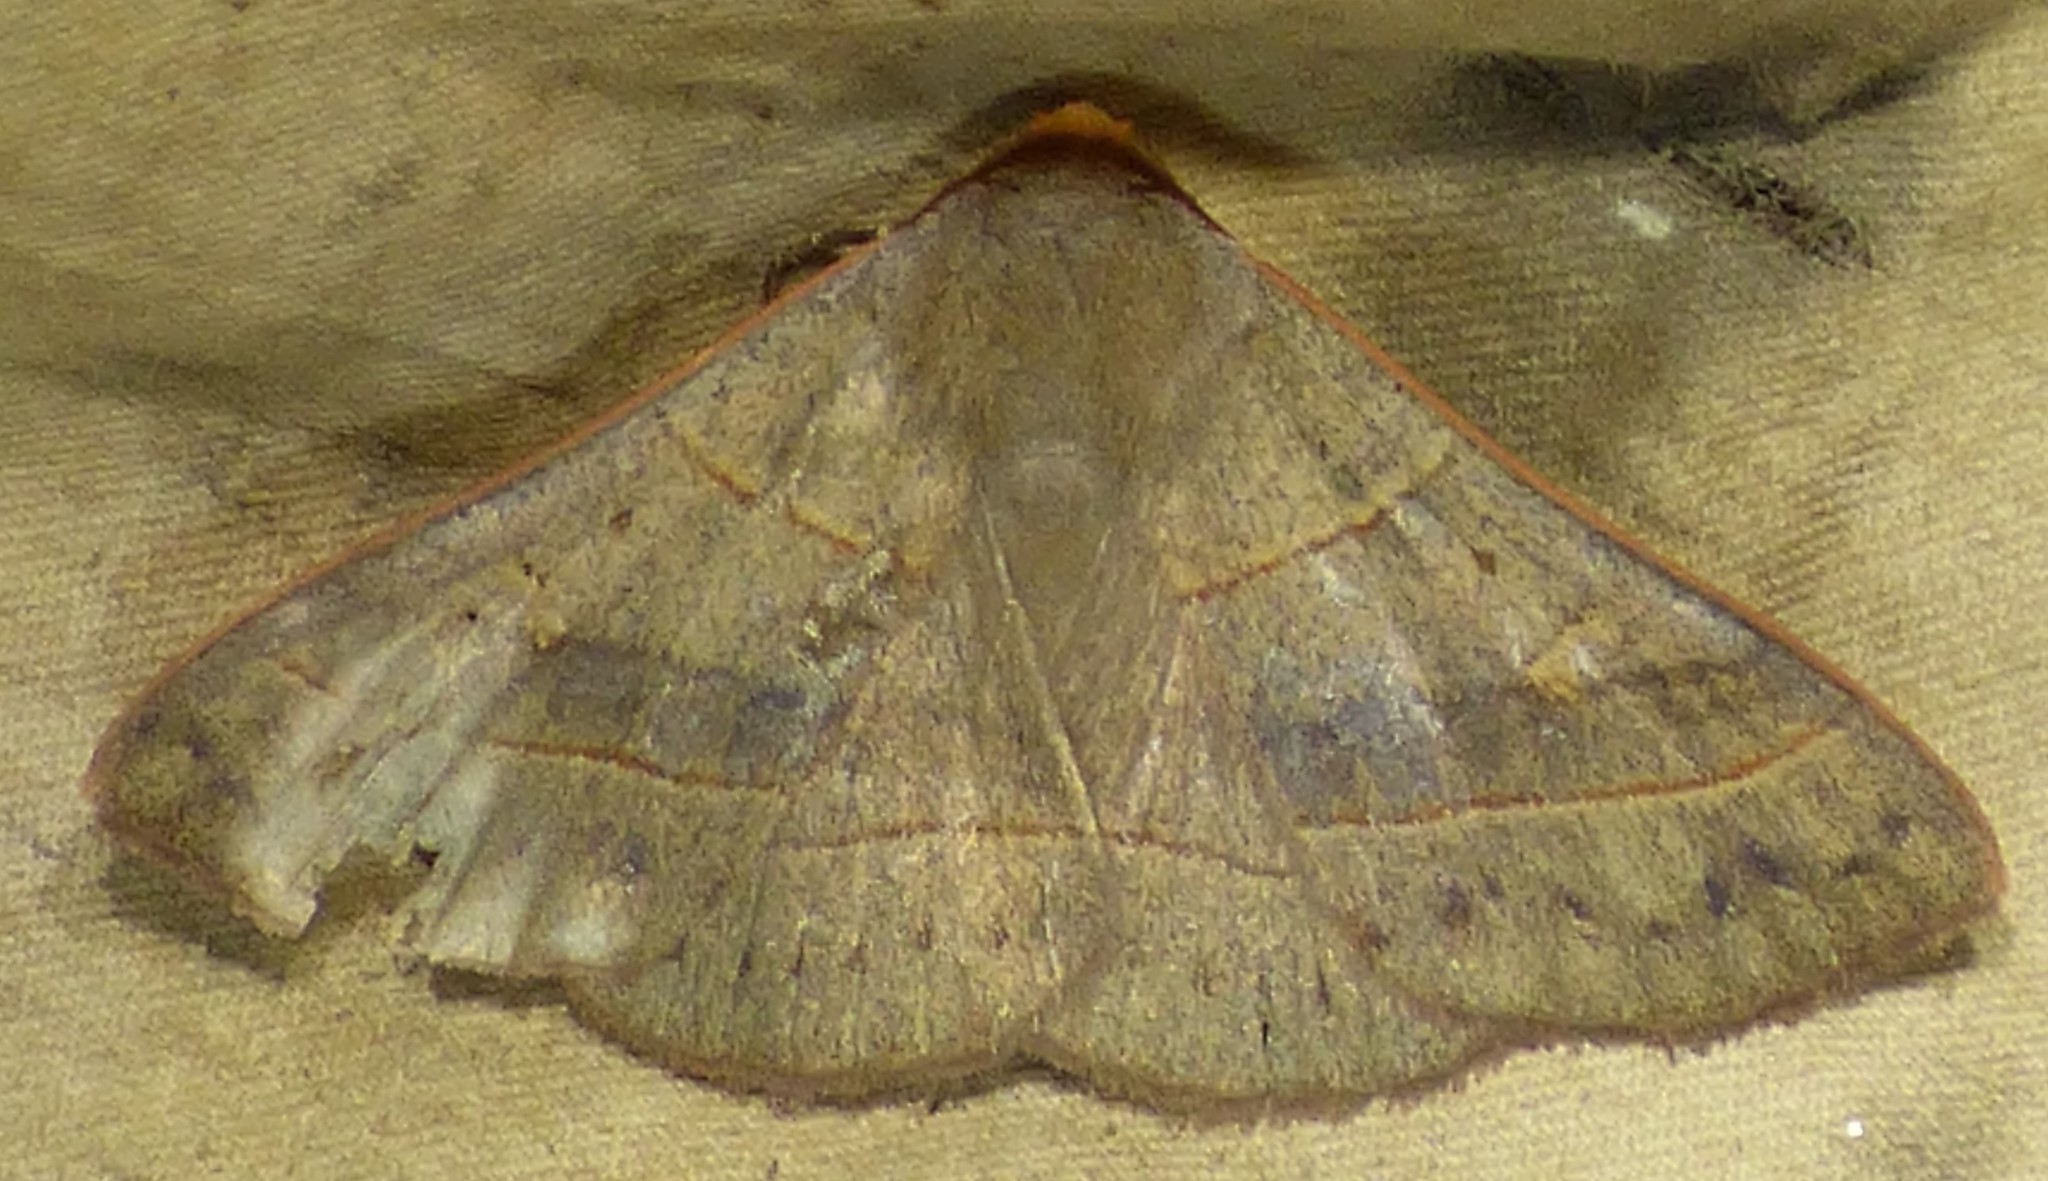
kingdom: Animalia
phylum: Arthropoda
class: Insecta
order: Lepidoptera
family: Erebidae
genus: Panopoda
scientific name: Panopoda rufimargo
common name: Red-lined panopoda moth
